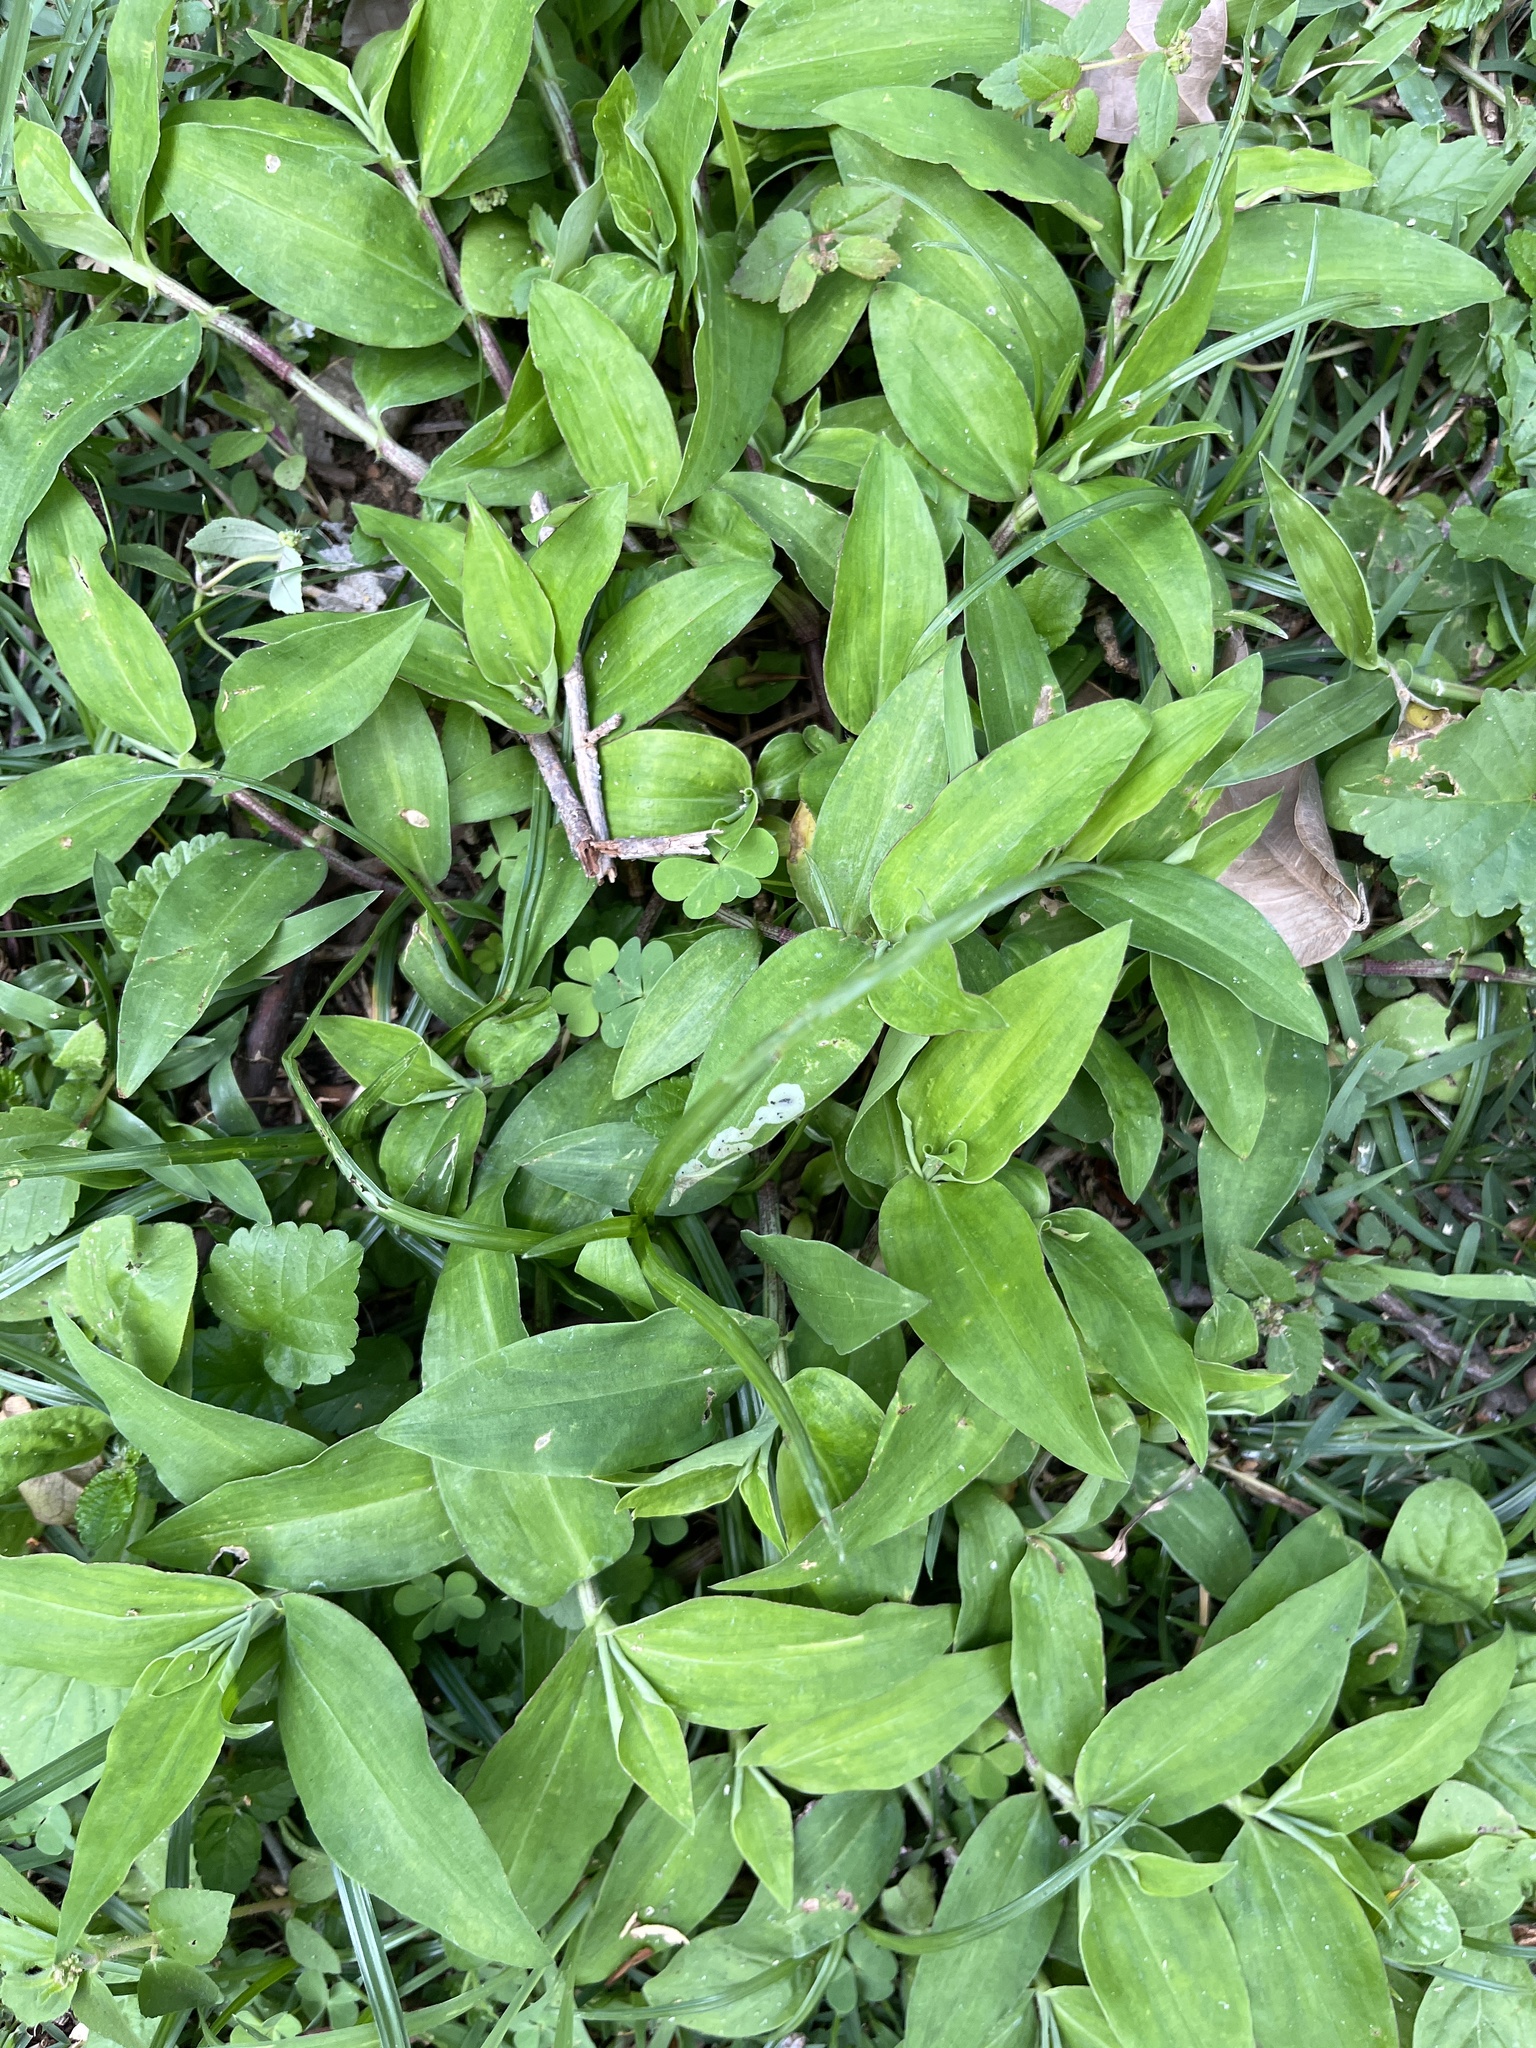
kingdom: Plantae
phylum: Tracheophyta
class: Liliopsida
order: Commelinales
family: Commelinaceae
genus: Commelina
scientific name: Commelina erecta
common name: Blousel blommetjie
